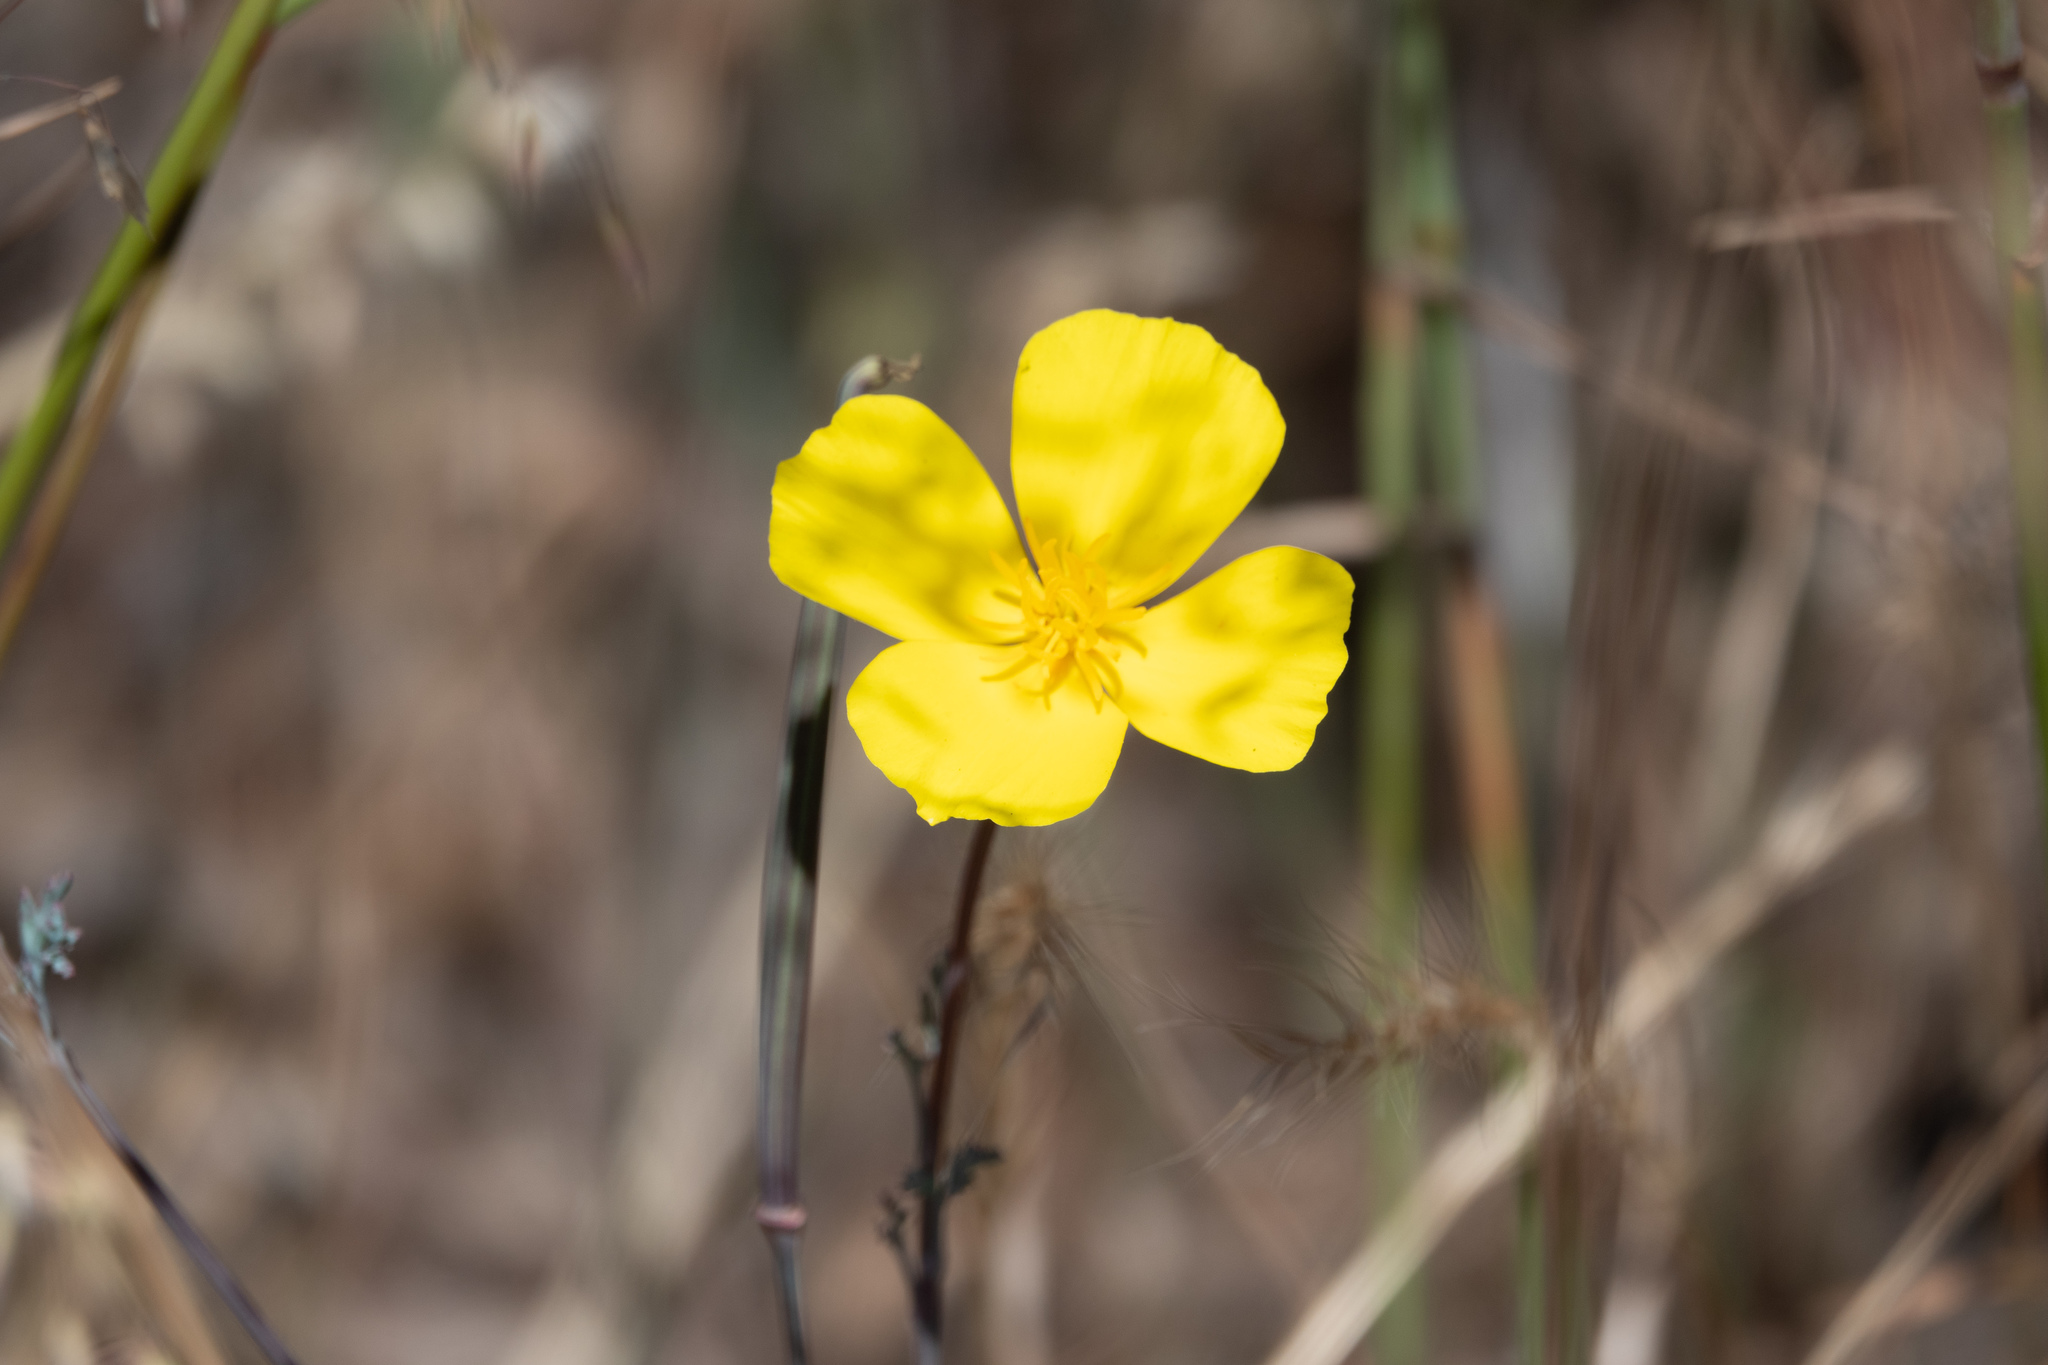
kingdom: Plantae
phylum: Tracheophyta
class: Magnoliopsida
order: Ranunculales
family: Papaveraceae
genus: Eschscholzia
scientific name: Eschscholzia caespitosa
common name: Tufted california-poppy
